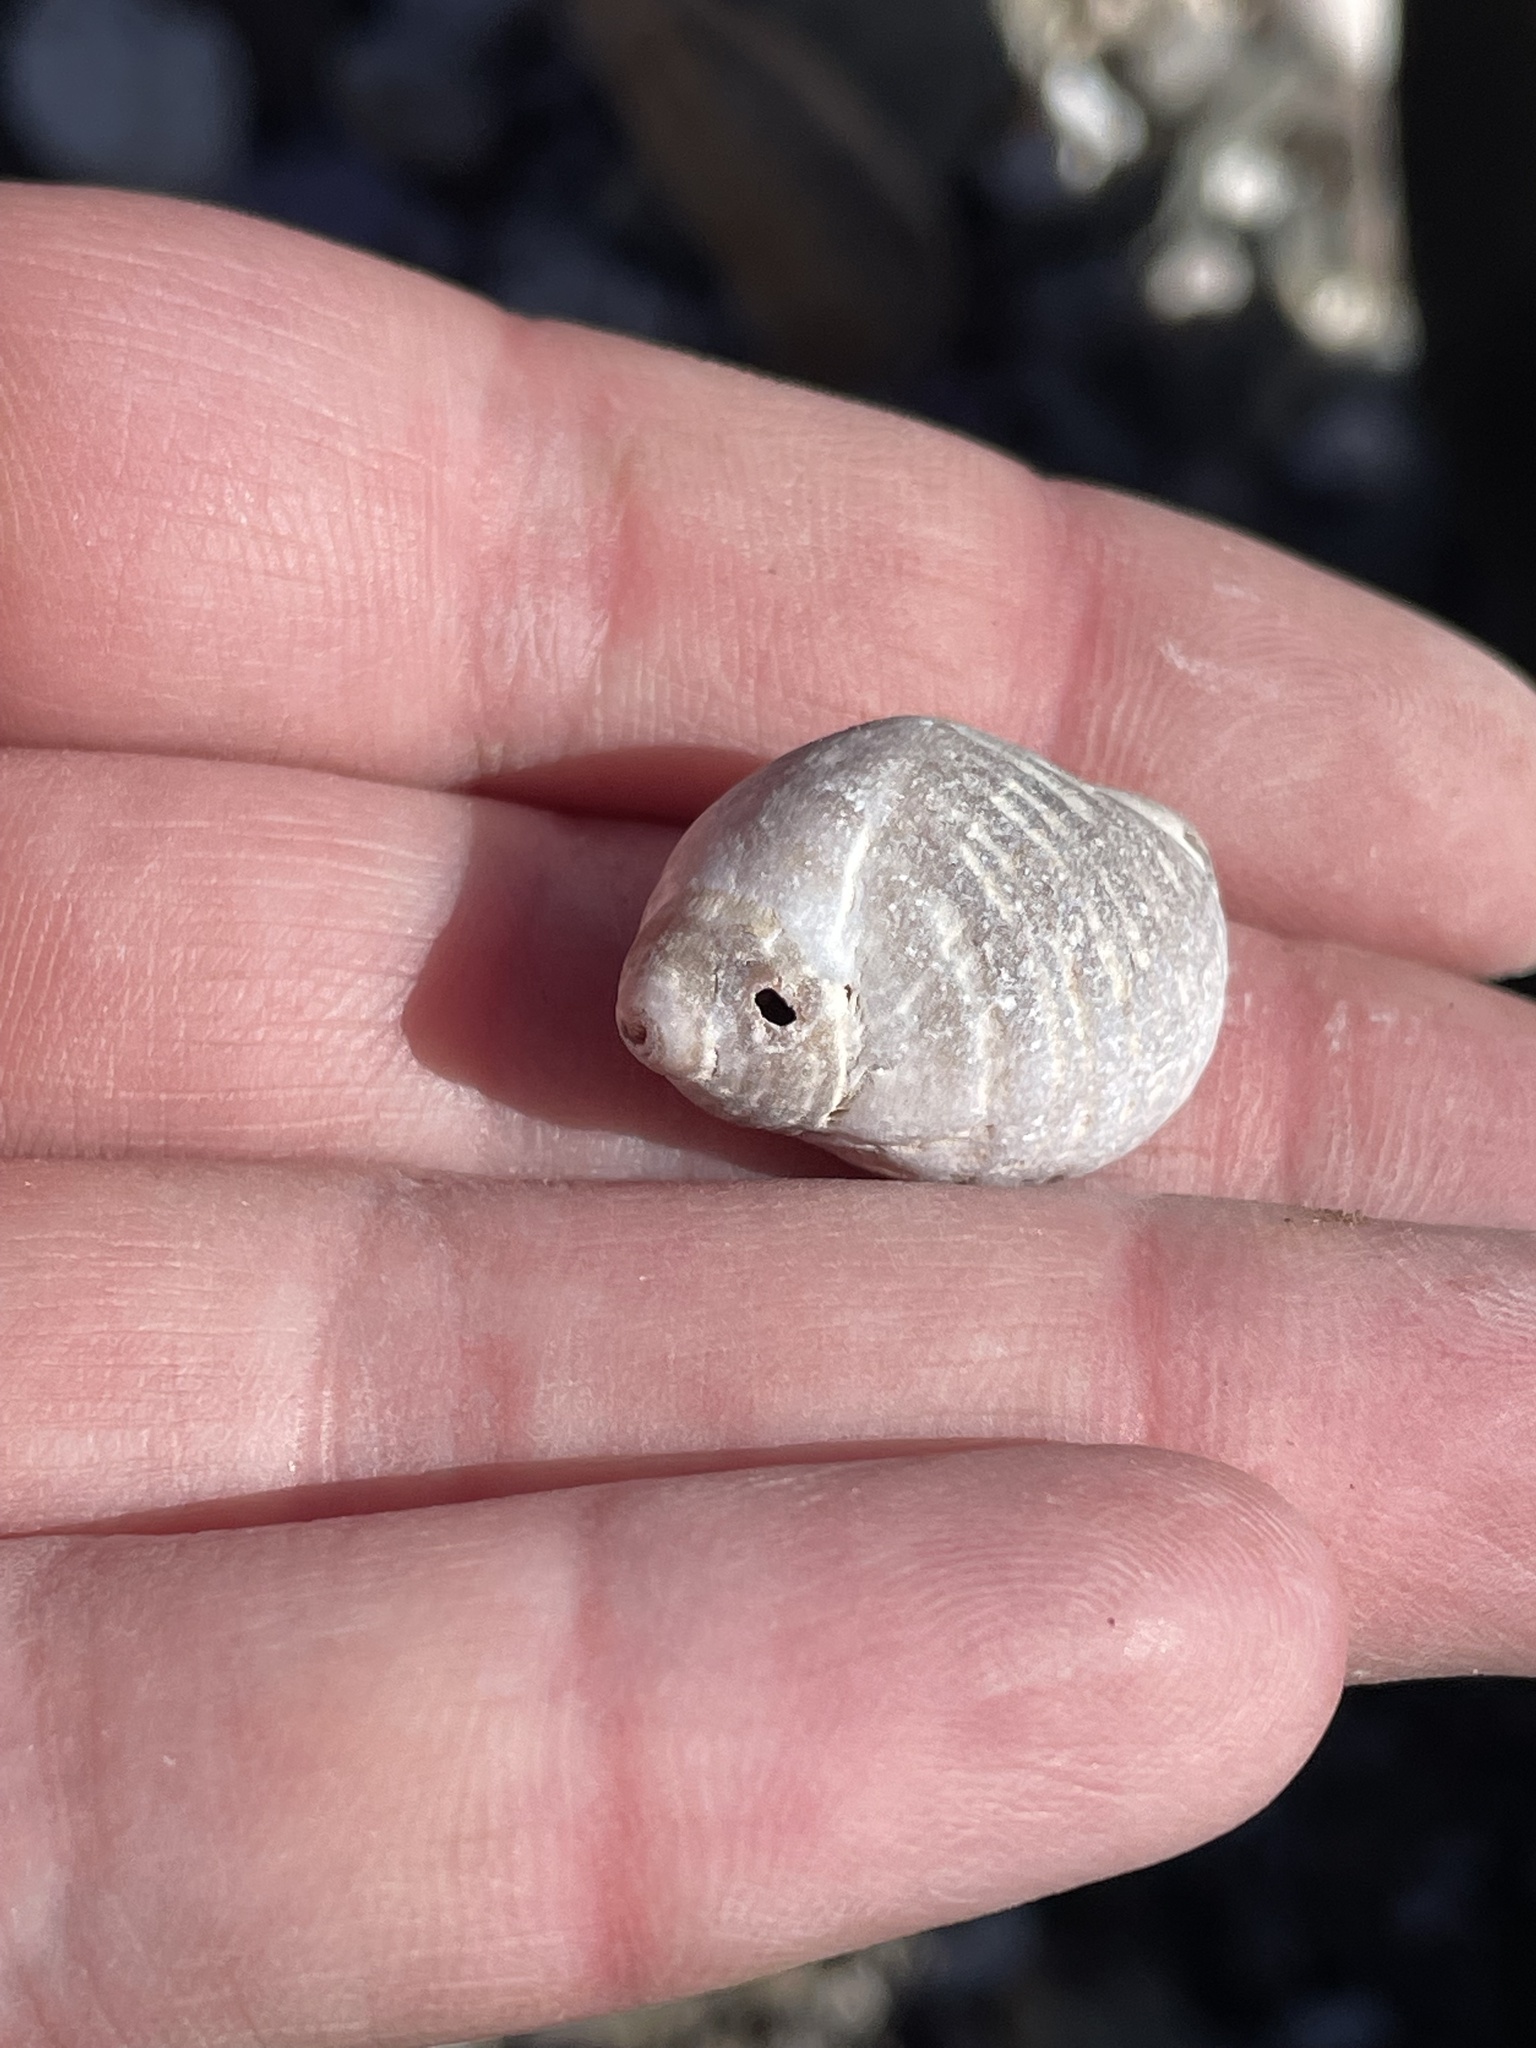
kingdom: Animalia
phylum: Mollusca
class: Gastropoda
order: Neogastropoda
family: Muricidae
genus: Nucella
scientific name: Nucella lapillus
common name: Dog whelk
